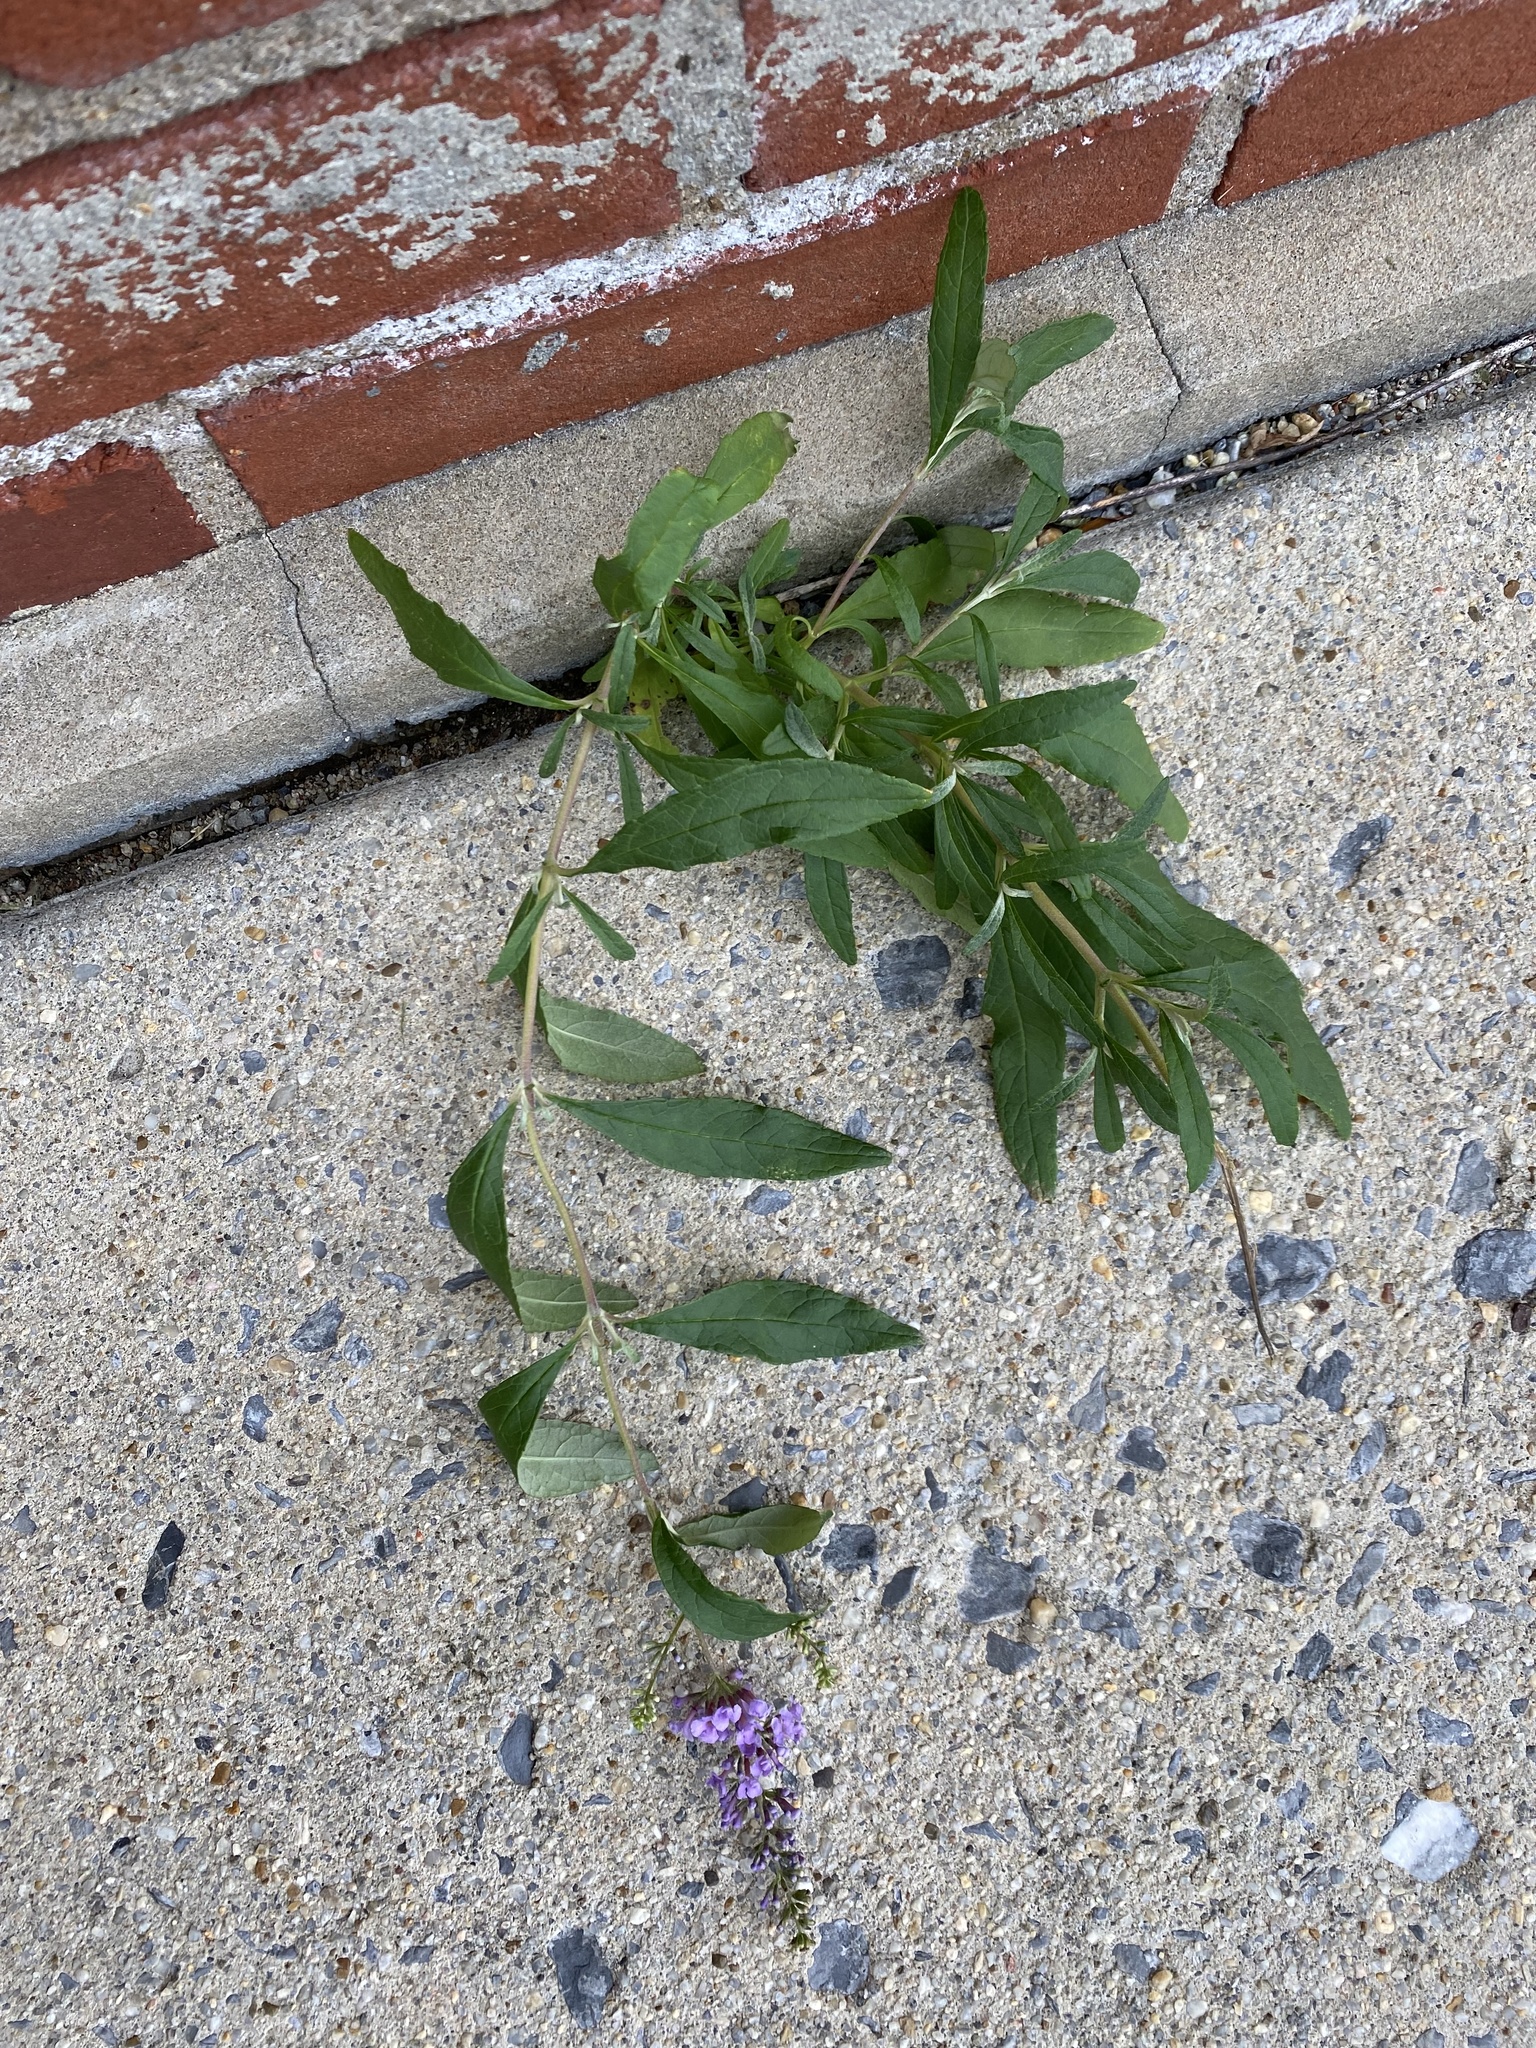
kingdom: Plantae
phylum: Tracheophyta
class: Magnoliopsida
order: Lamiales
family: Scrophulariaceae
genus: Buddleja
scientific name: Buddleja davidii
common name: Butterfly-bush
